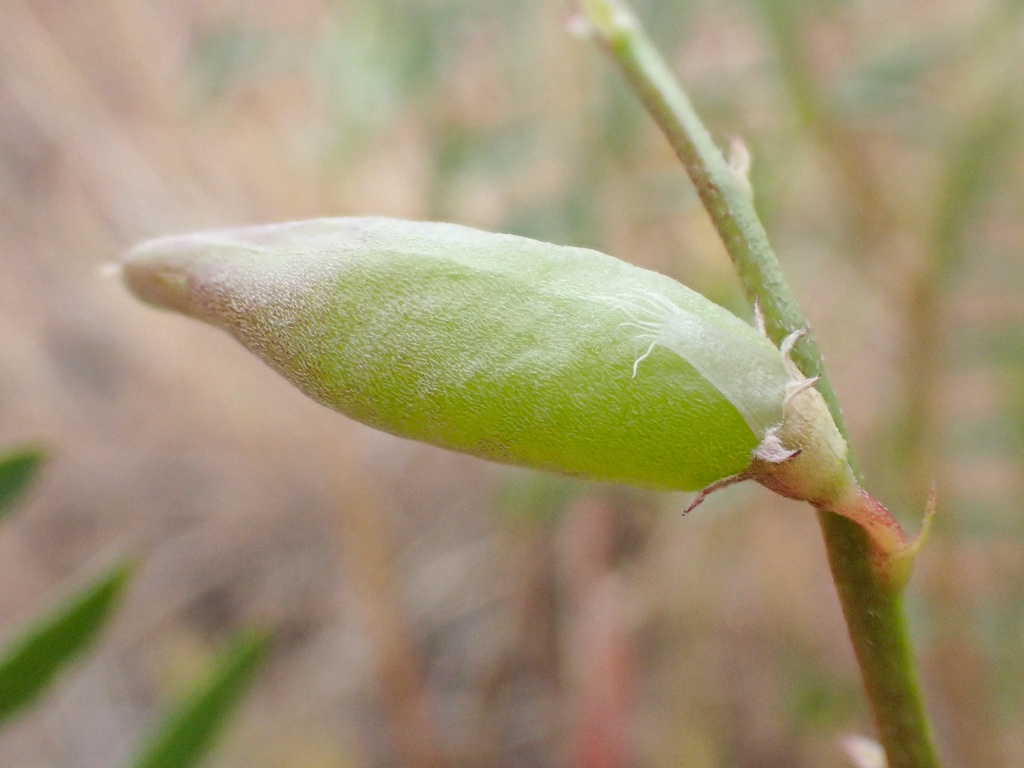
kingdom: Plantae
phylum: Tracheophyta
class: Magnoliopsida
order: Fabales
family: Fabaceae
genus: Astragalus
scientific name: Astragalus macrodon
